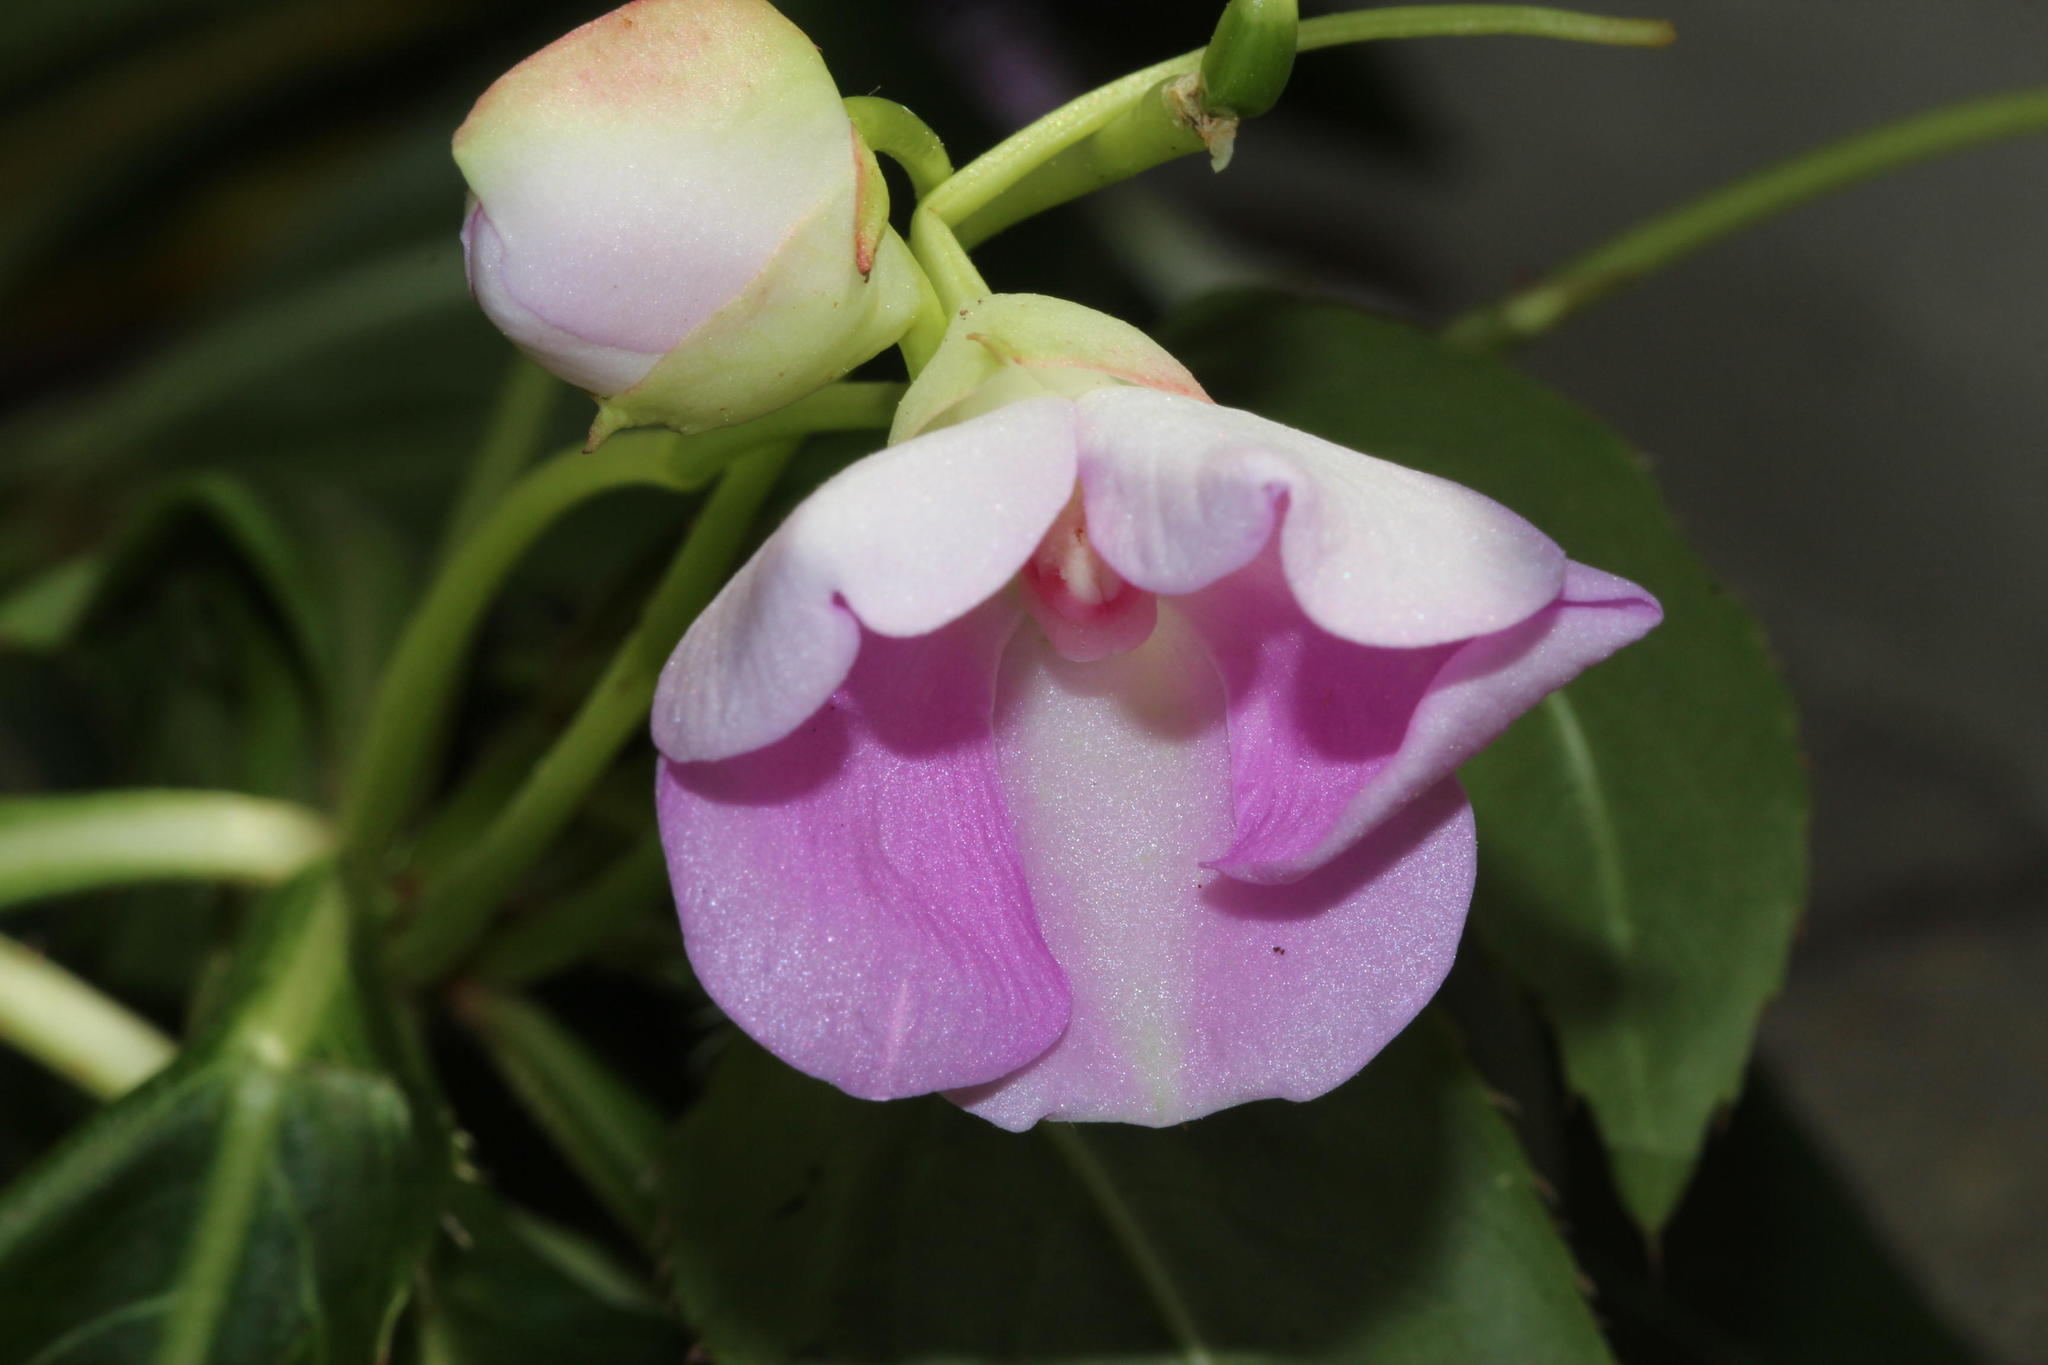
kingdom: Plantae
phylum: Tracheophyta
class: Magnoliopsida
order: Ericales
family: Balsaminaceae
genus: Impatiens
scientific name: Impatiens sodenii
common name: Oliver's touch-me-not
